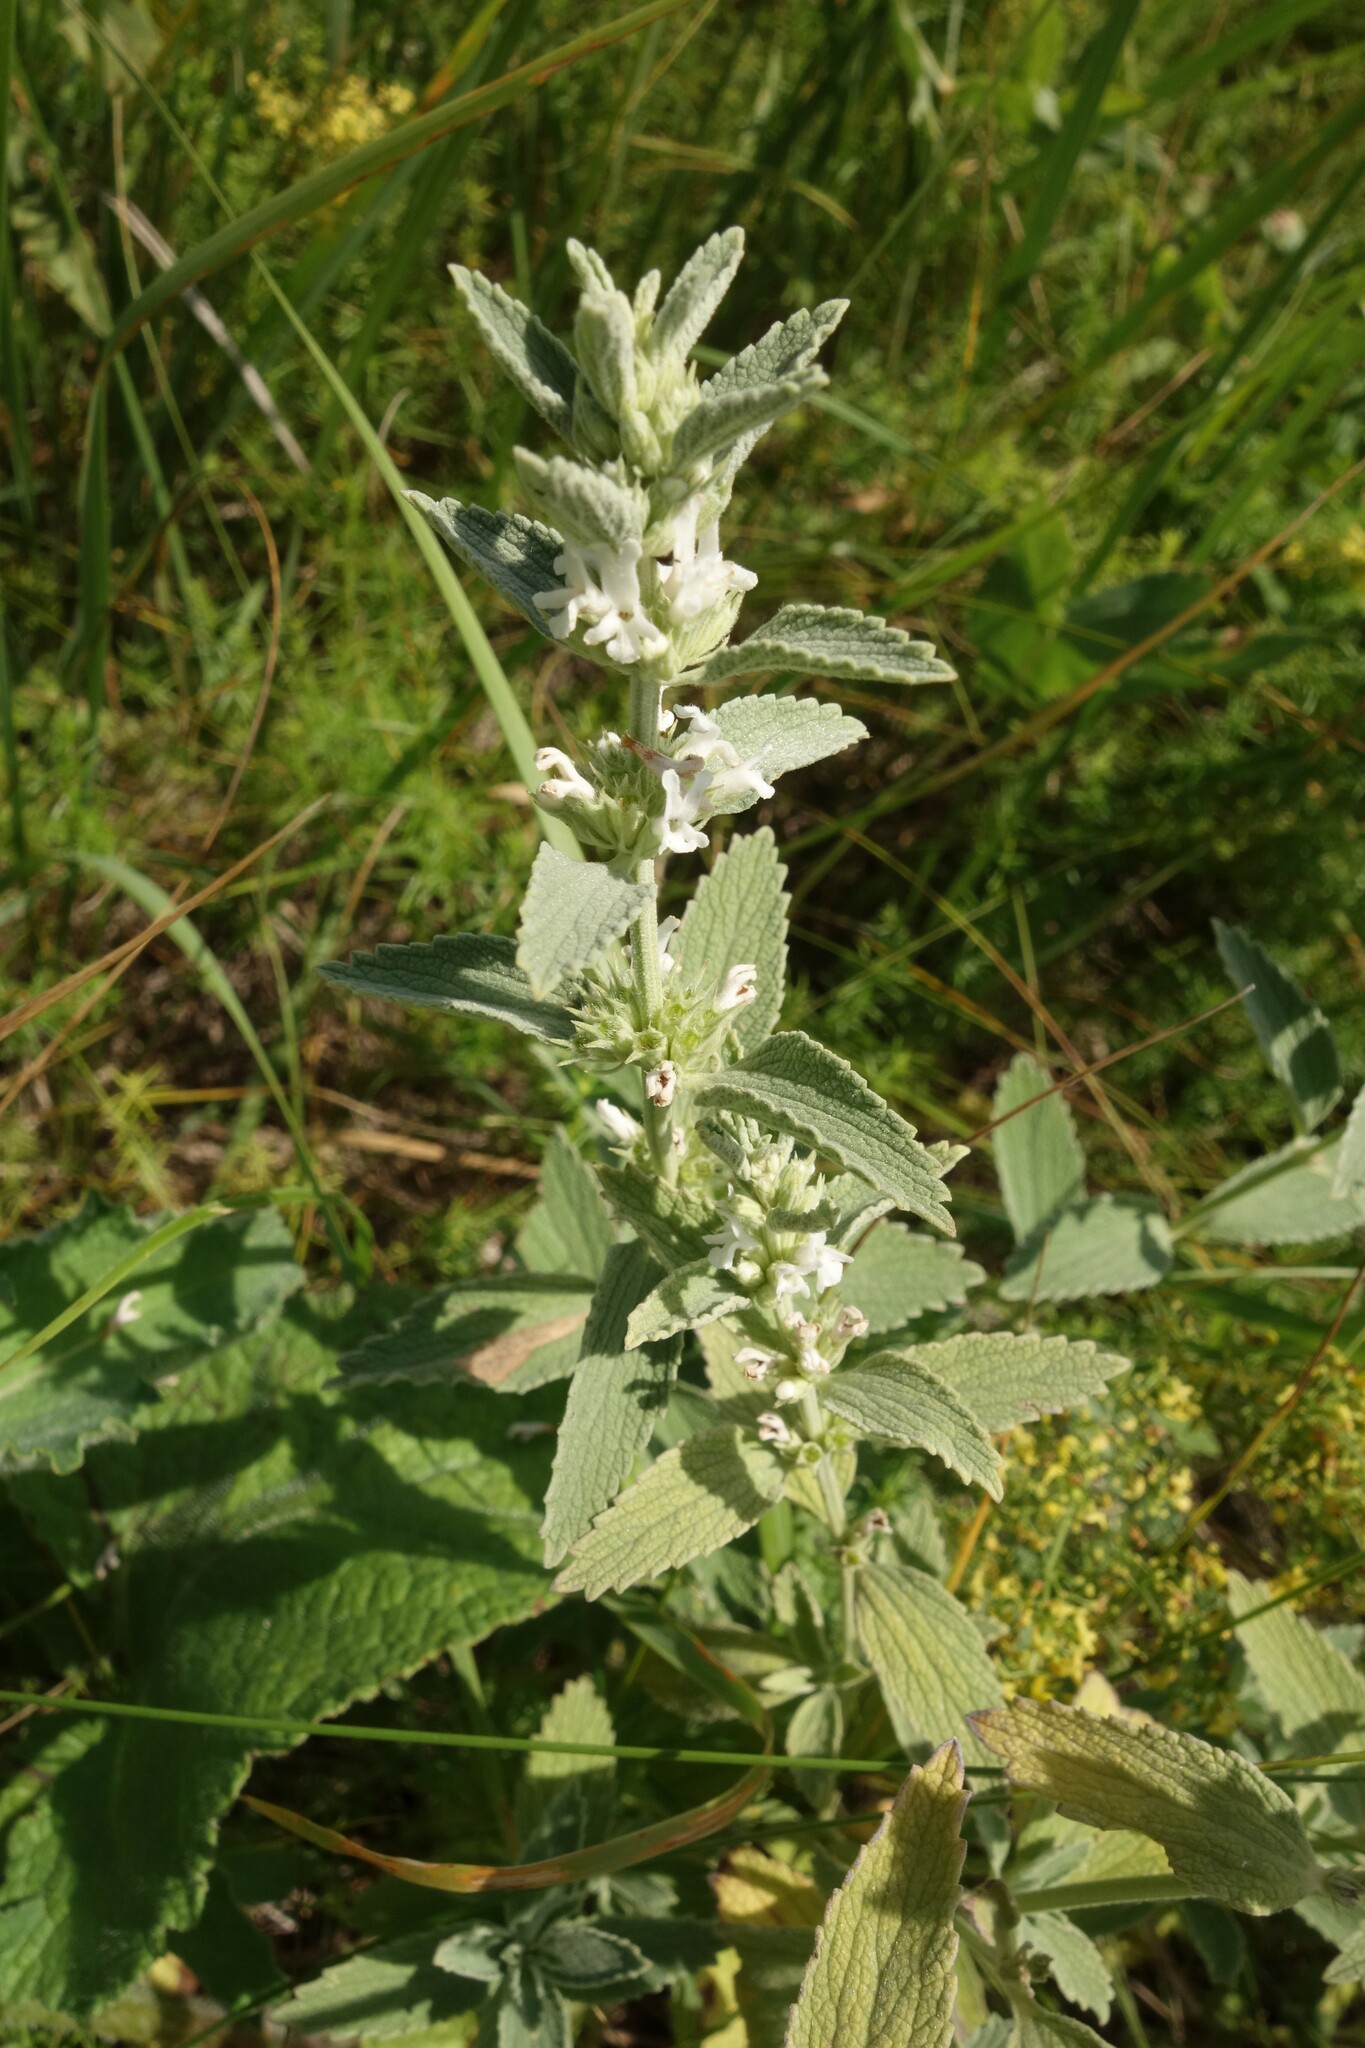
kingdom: Plantae
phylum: Tracheophyta
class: Magnoliopsida
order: Lamiales
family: Lamiaceae
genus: Marrubium
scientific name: Marrubium peregrinum
